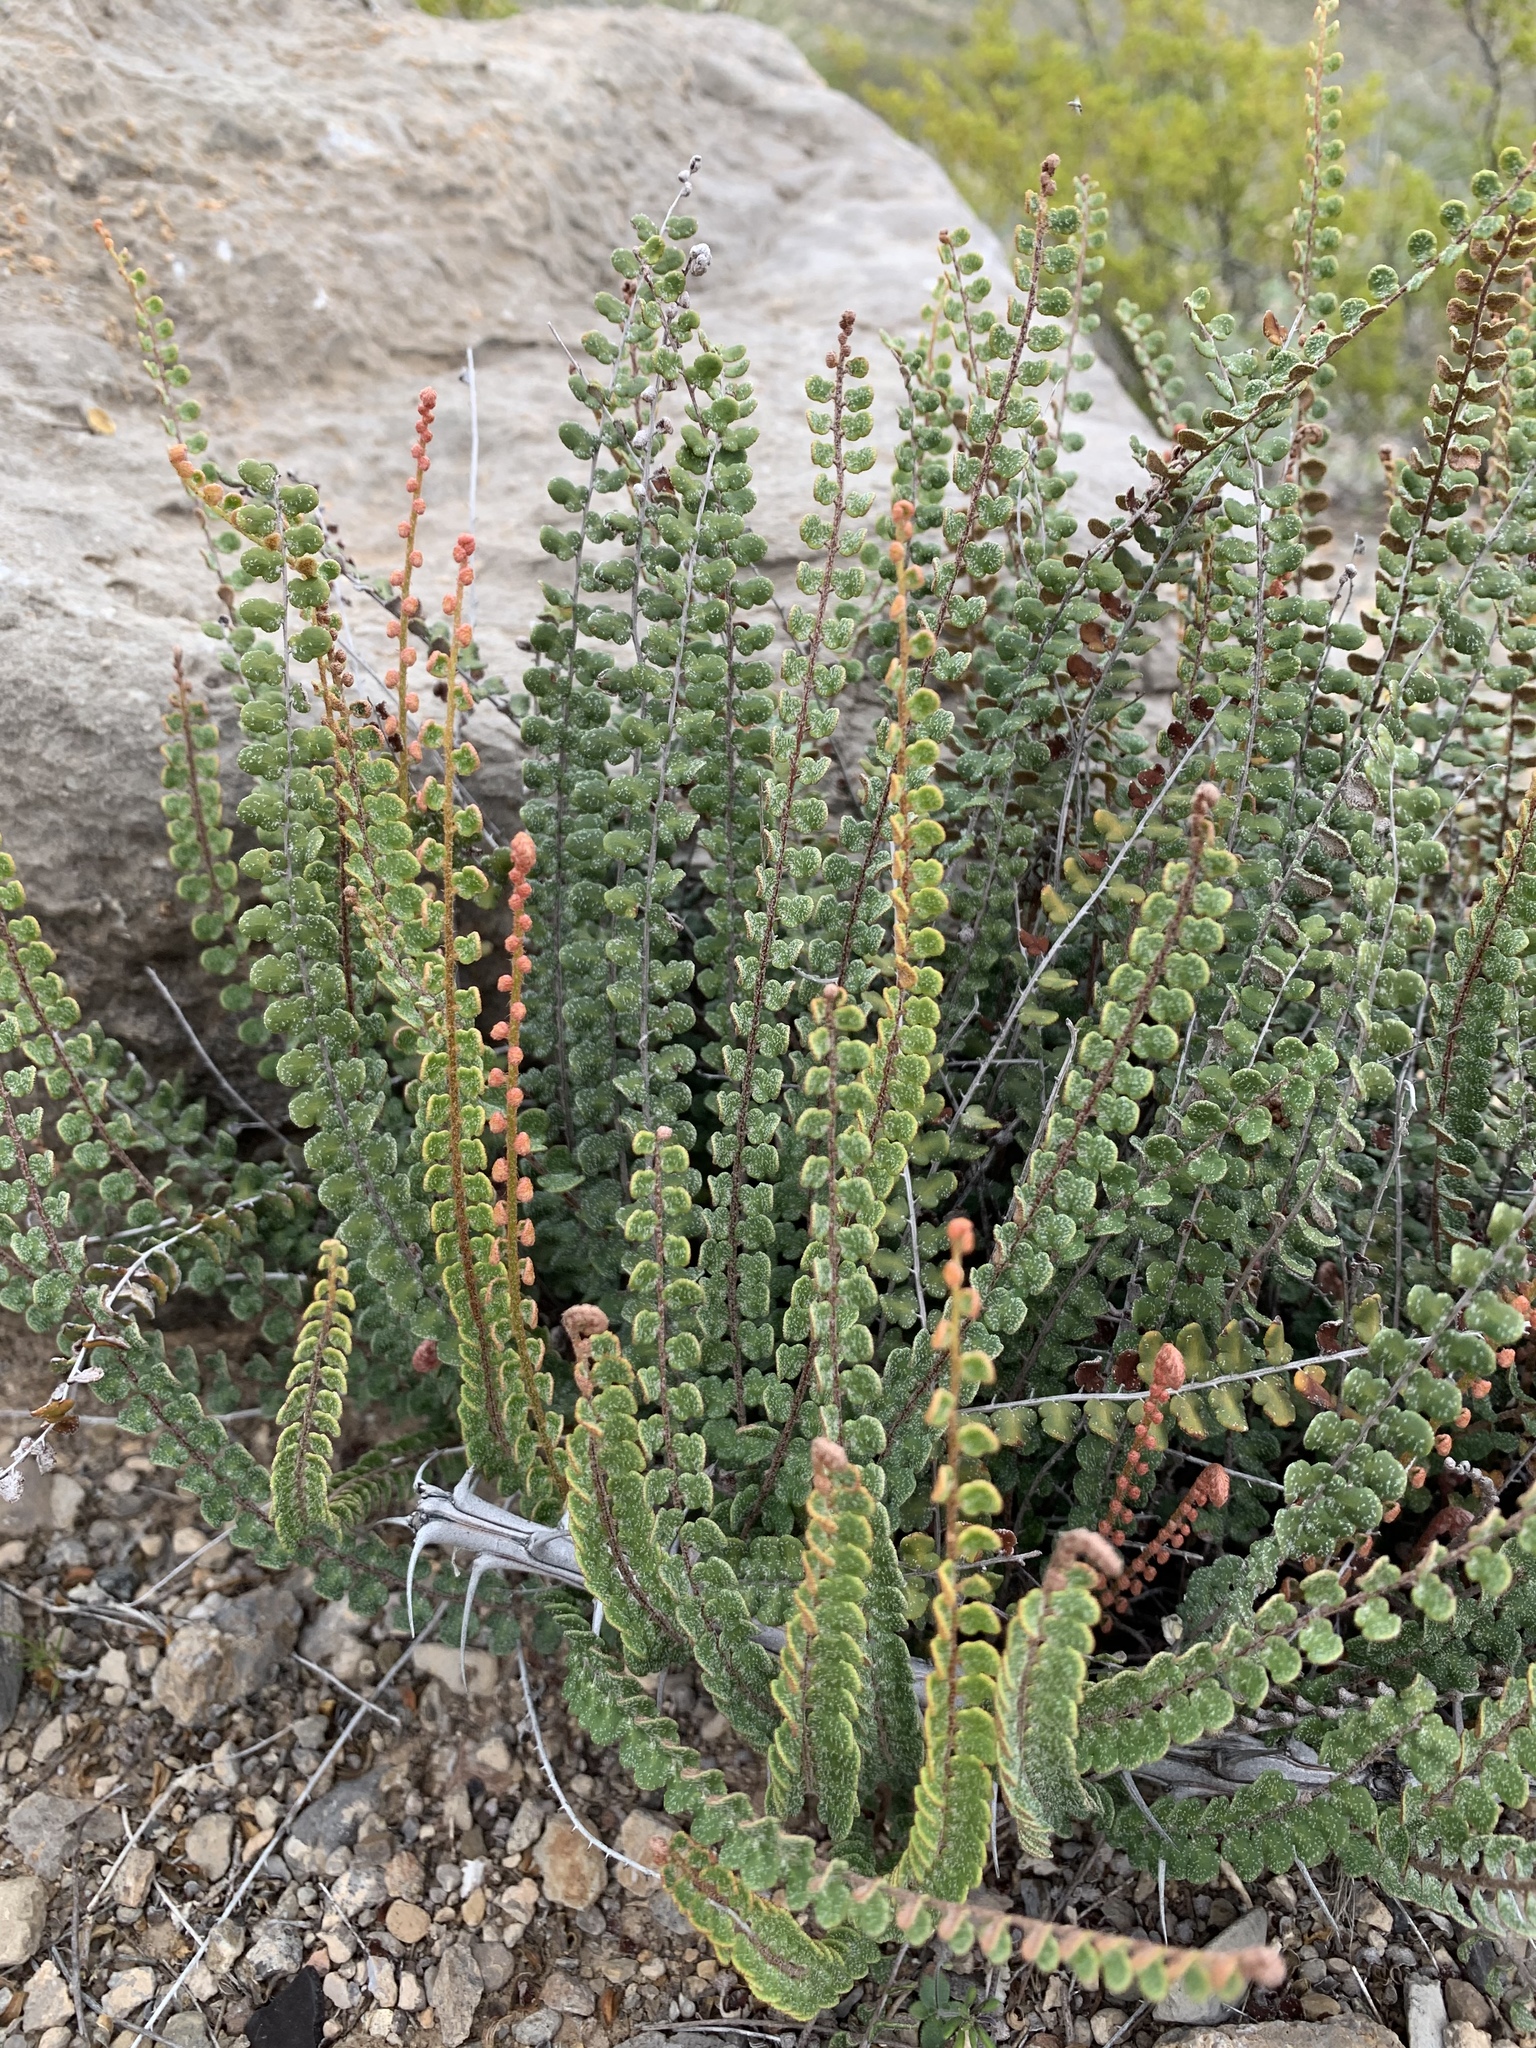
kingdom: Plantae
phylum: Tracheophyta
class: Polypodiopsida
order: Polypodiales
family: Pteridaceae
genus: Astrolepis
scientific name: Astrolepis cochisensis
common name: Scaly cloak fern
